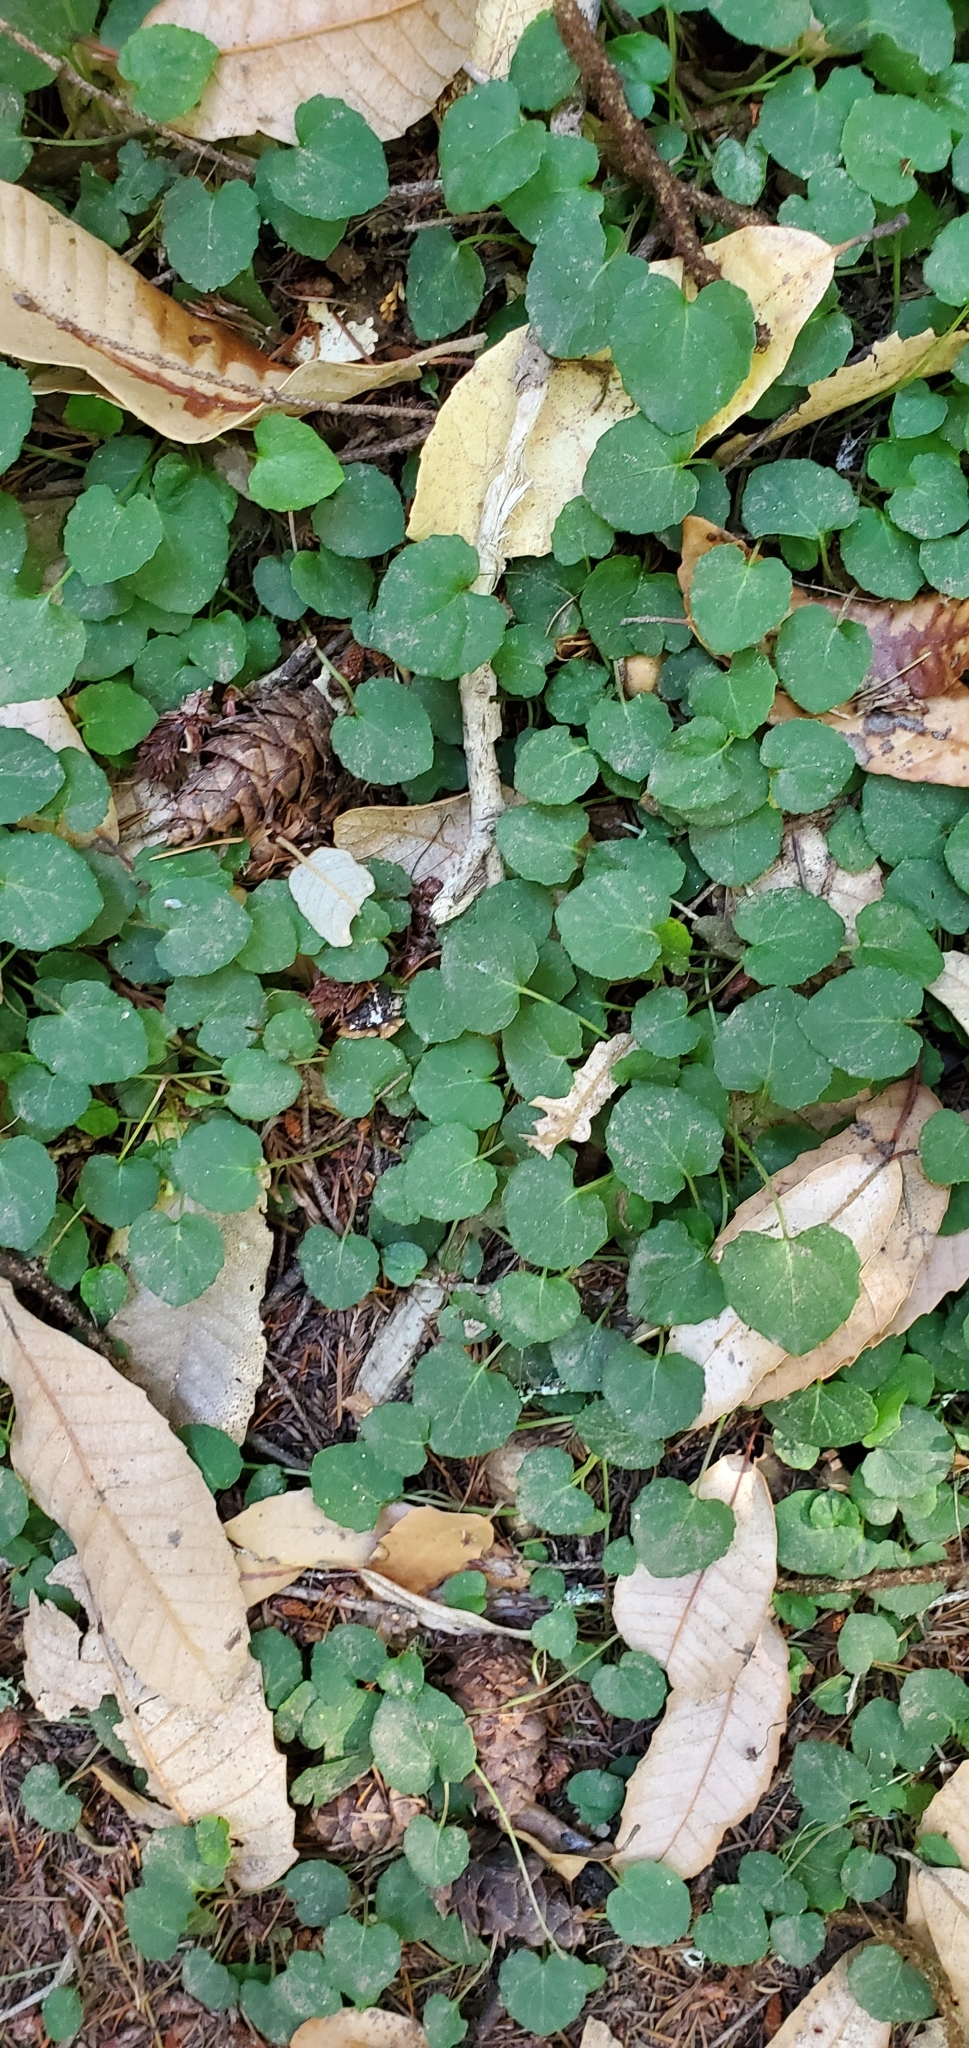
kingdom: Plantae
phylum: Tracheophyta
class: Magnoliopsida
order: Malpighiales
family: Violaceae
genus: Viola
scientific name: Viola sempervirens
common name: Evergreen violet
